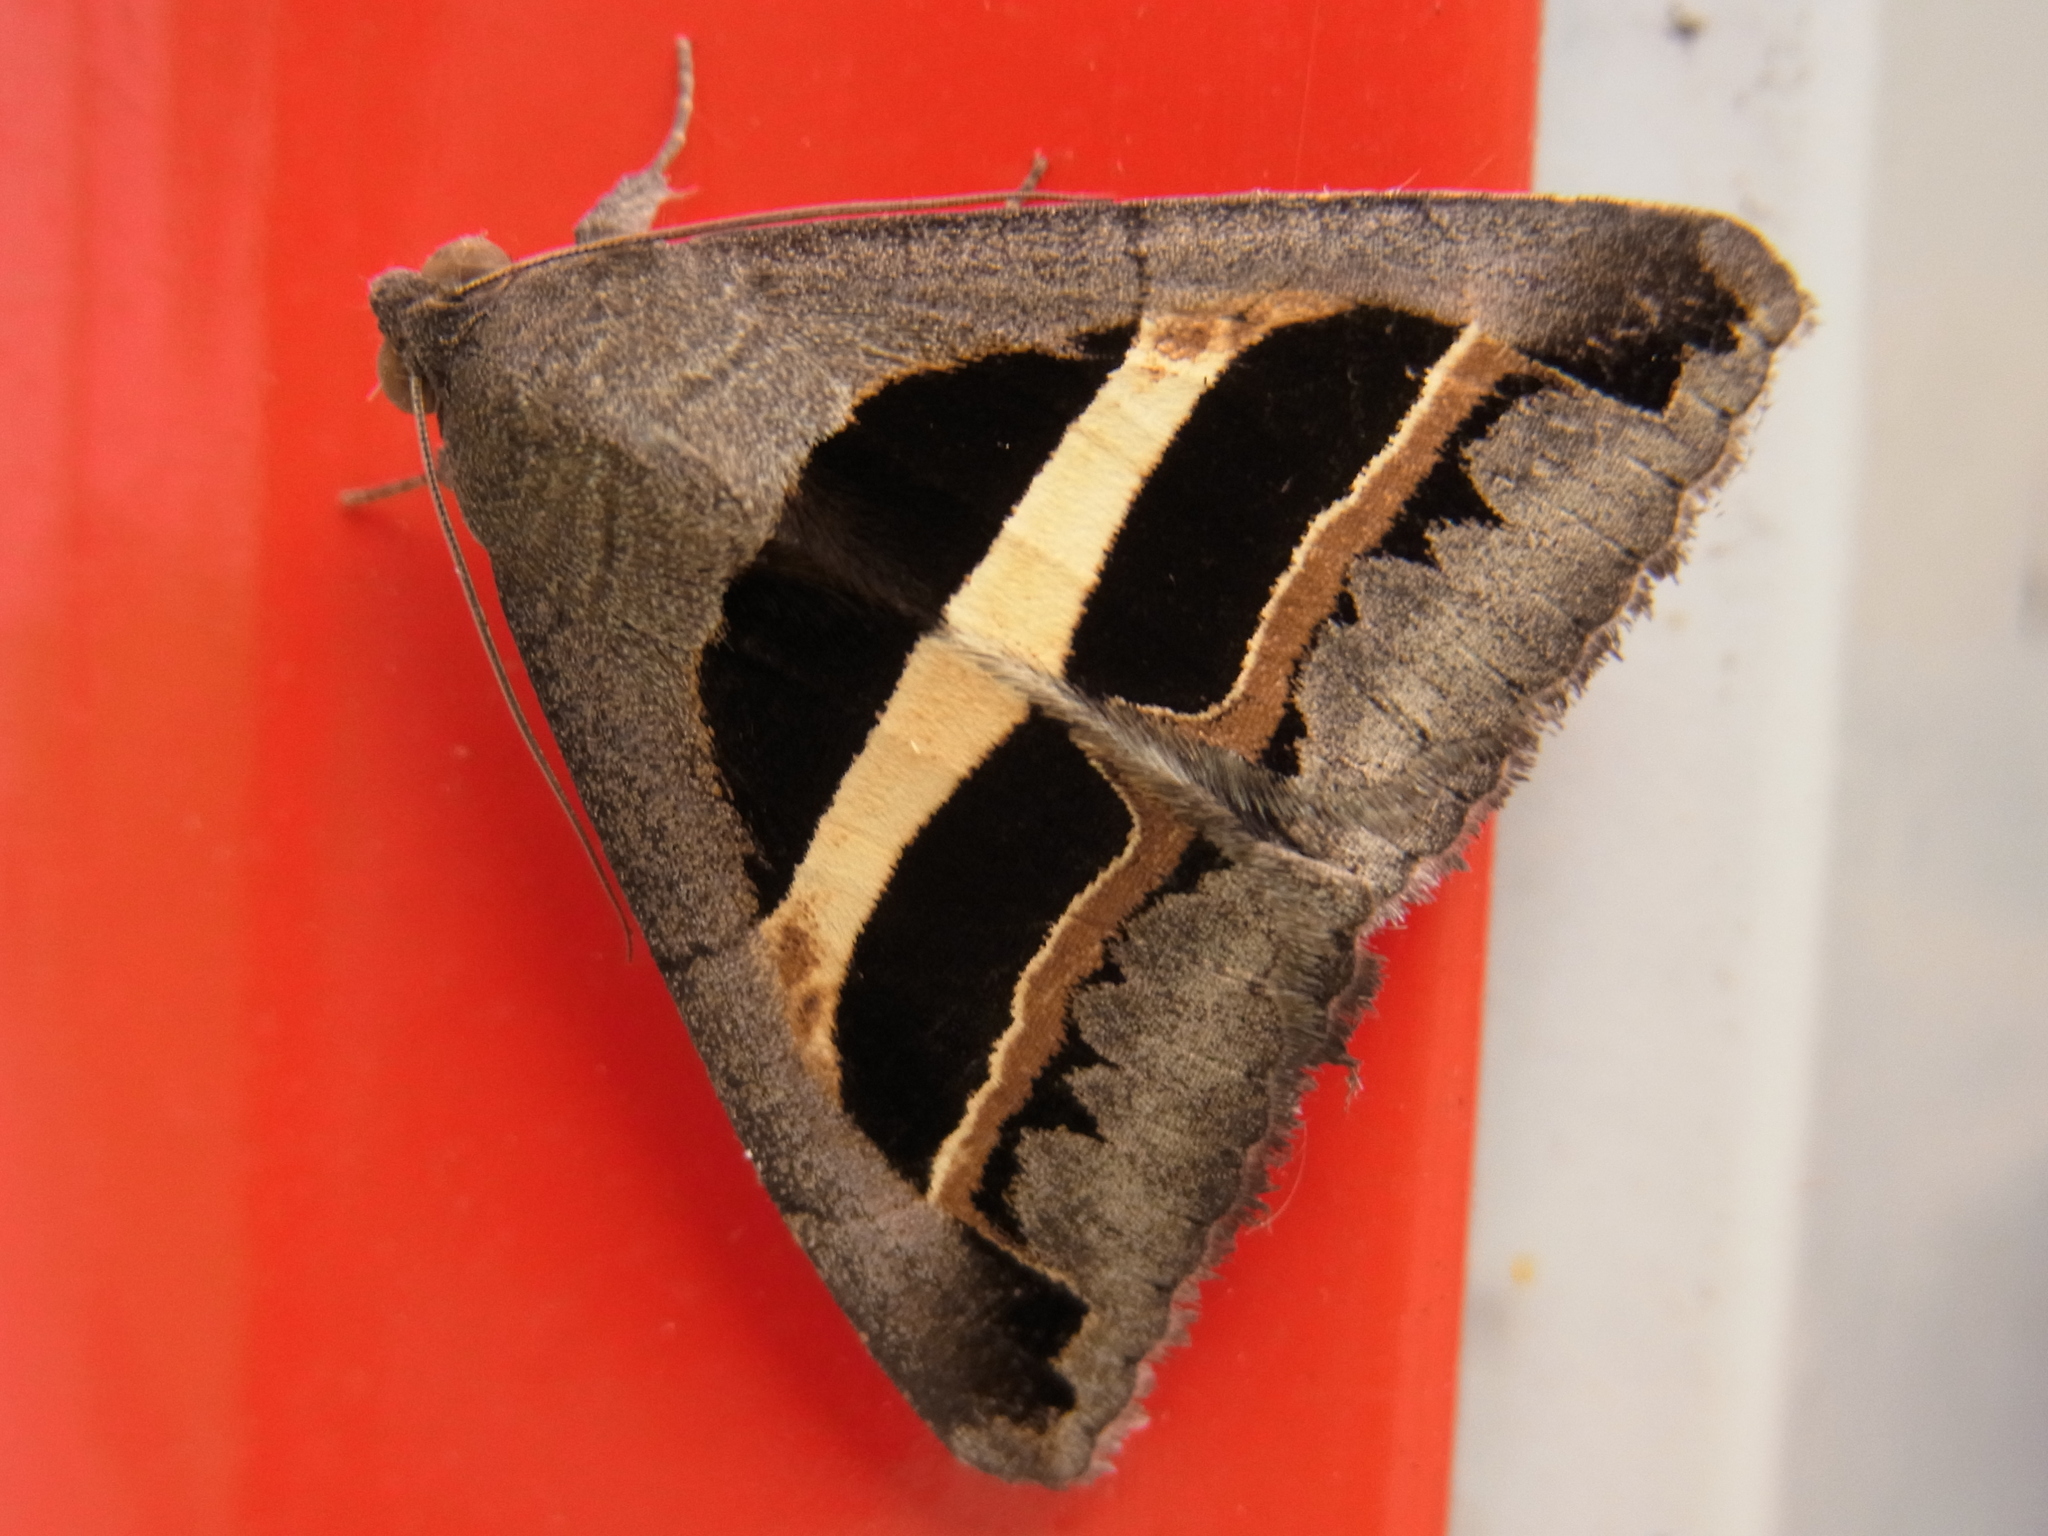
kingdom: Animalia
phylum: Arthropoda
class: Insecta
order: Lepidoptera
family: Erebidae
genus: Grammodes
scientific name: Grammodes geometrica
